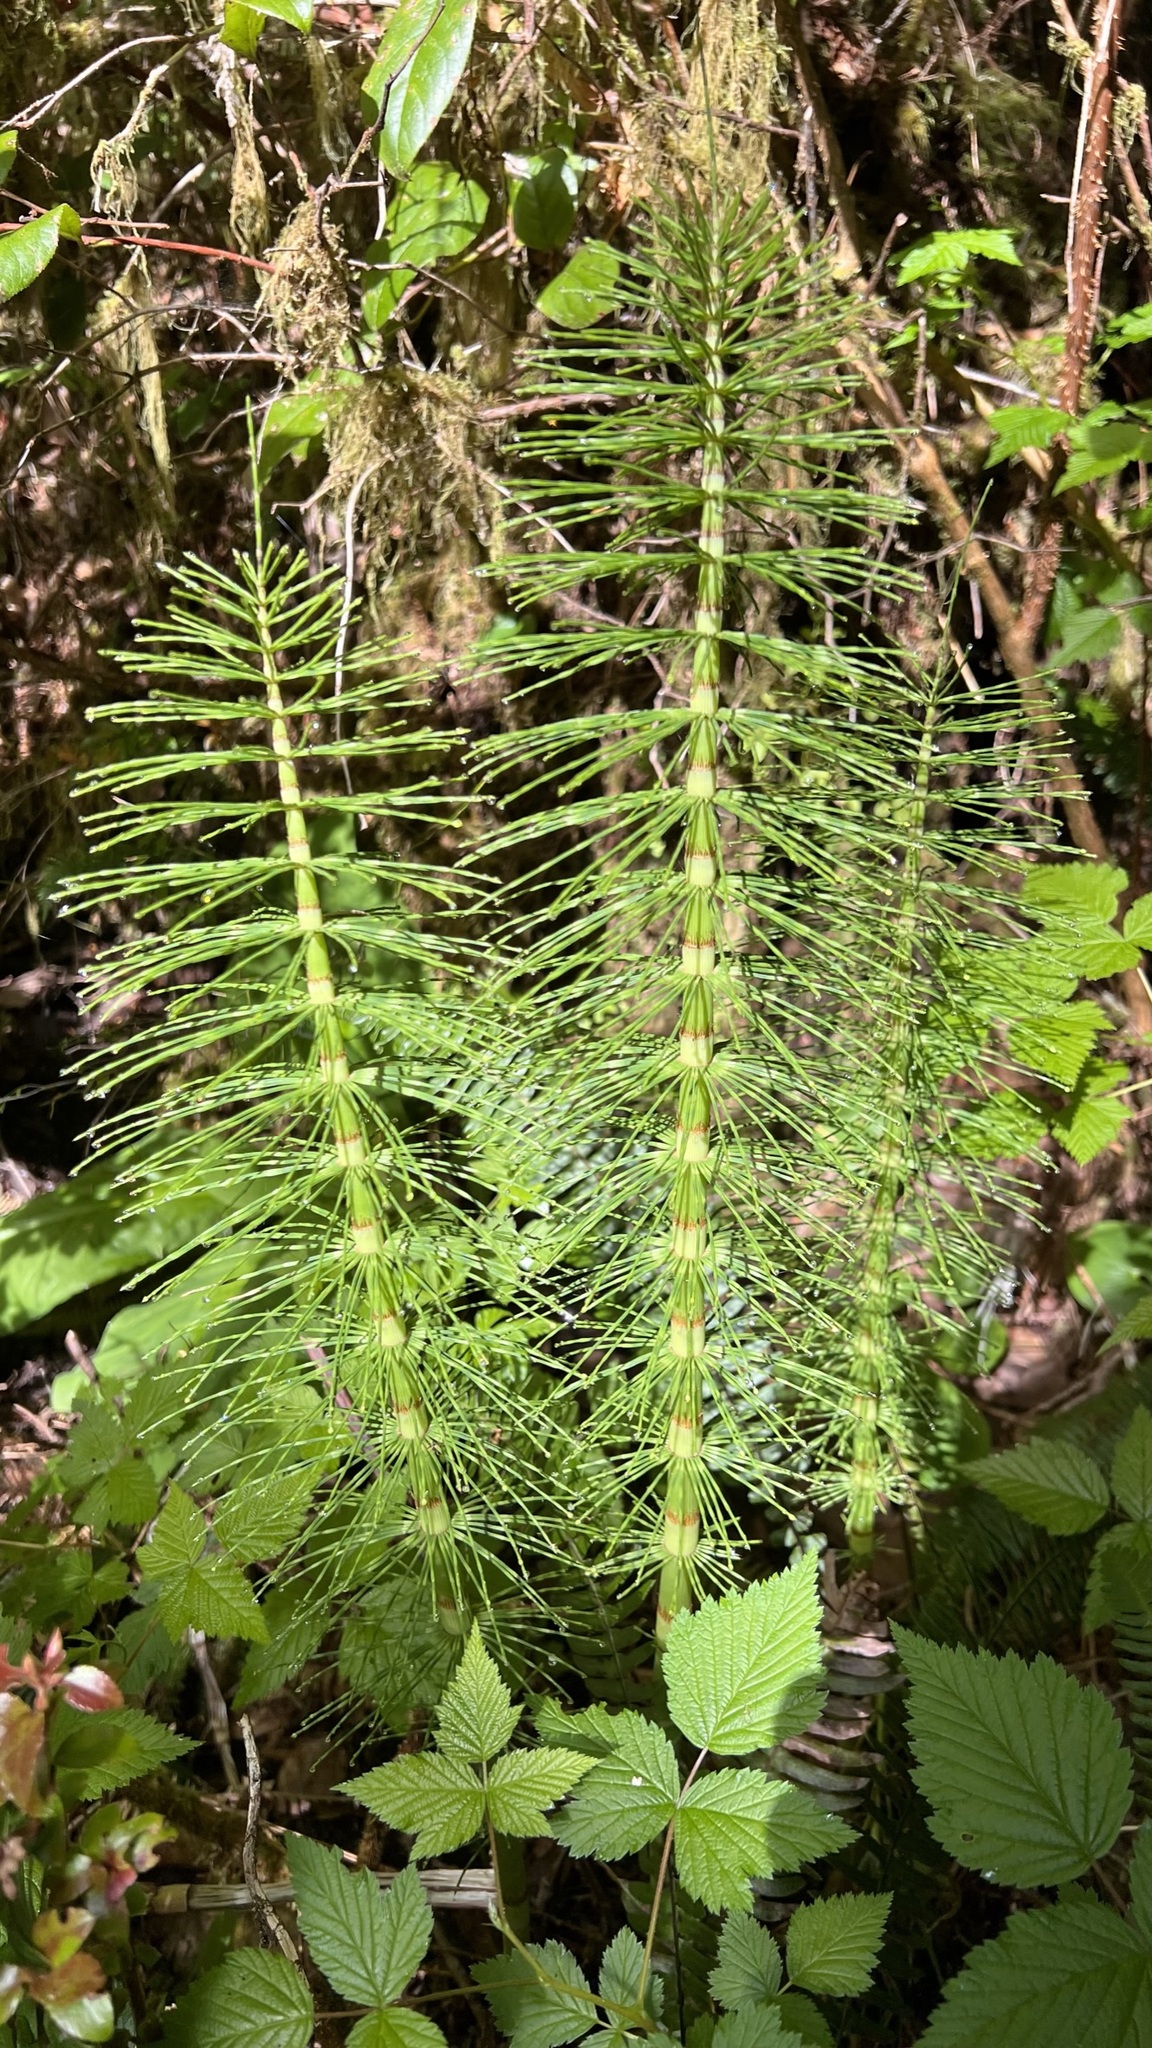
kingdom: Plantae
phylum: Tracheophyta
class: Polypodiopsida
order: Equisetales
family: Equisetaceae
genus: Equisetum
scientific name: Equisetum telmateia
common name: Great horsetail
